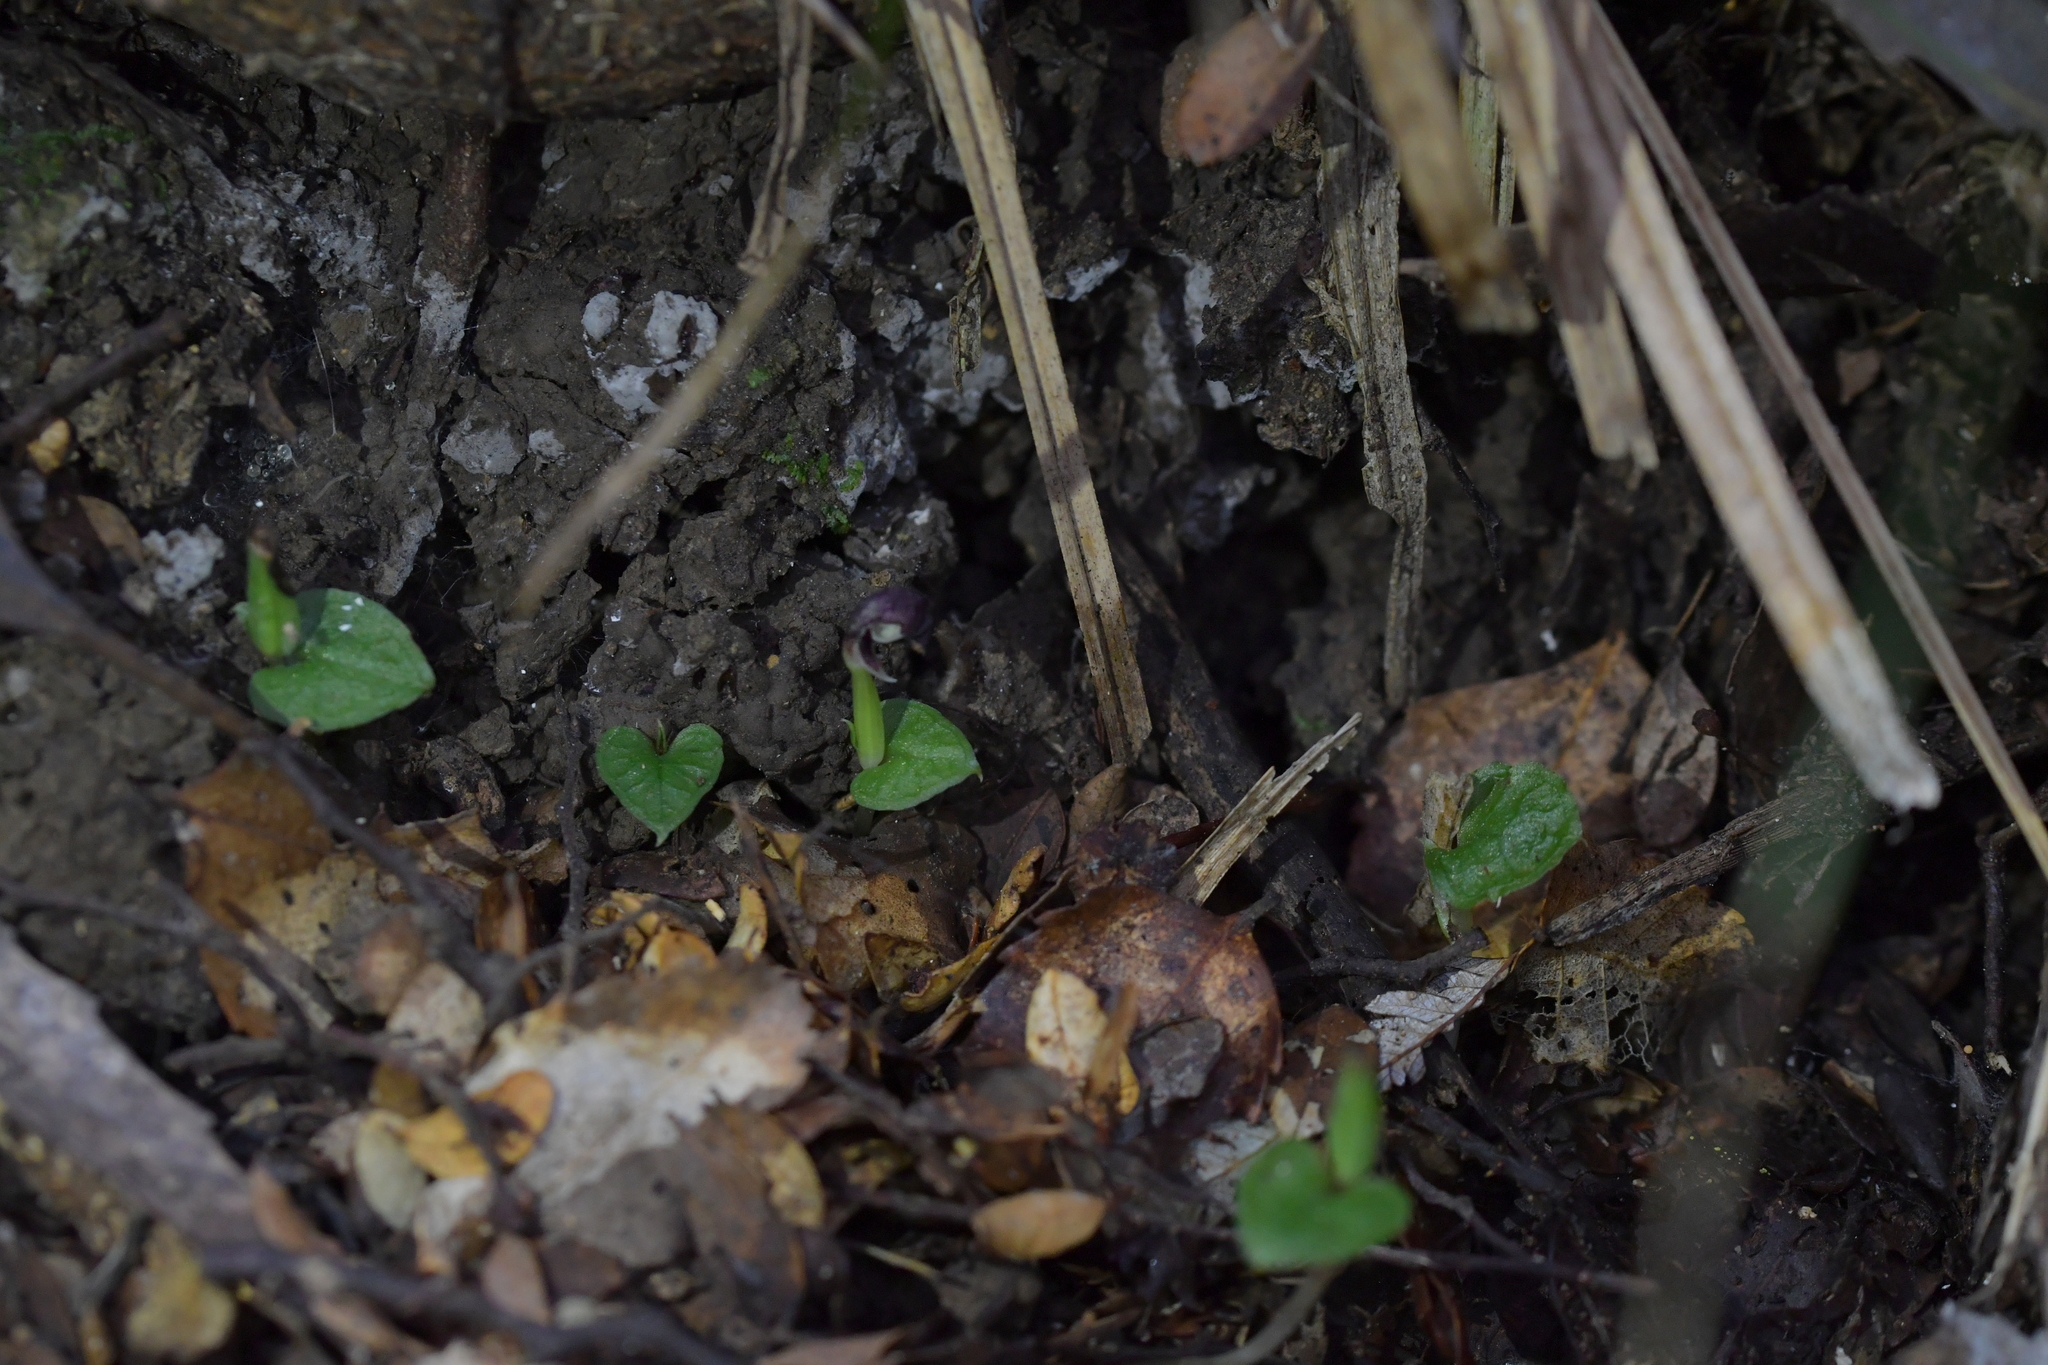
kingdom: Plantae
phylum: Tracheophyta
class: Liliopsida
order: Asparagales
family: Orchidaceae
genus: Corybas
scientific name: Corybas cheesemanii
